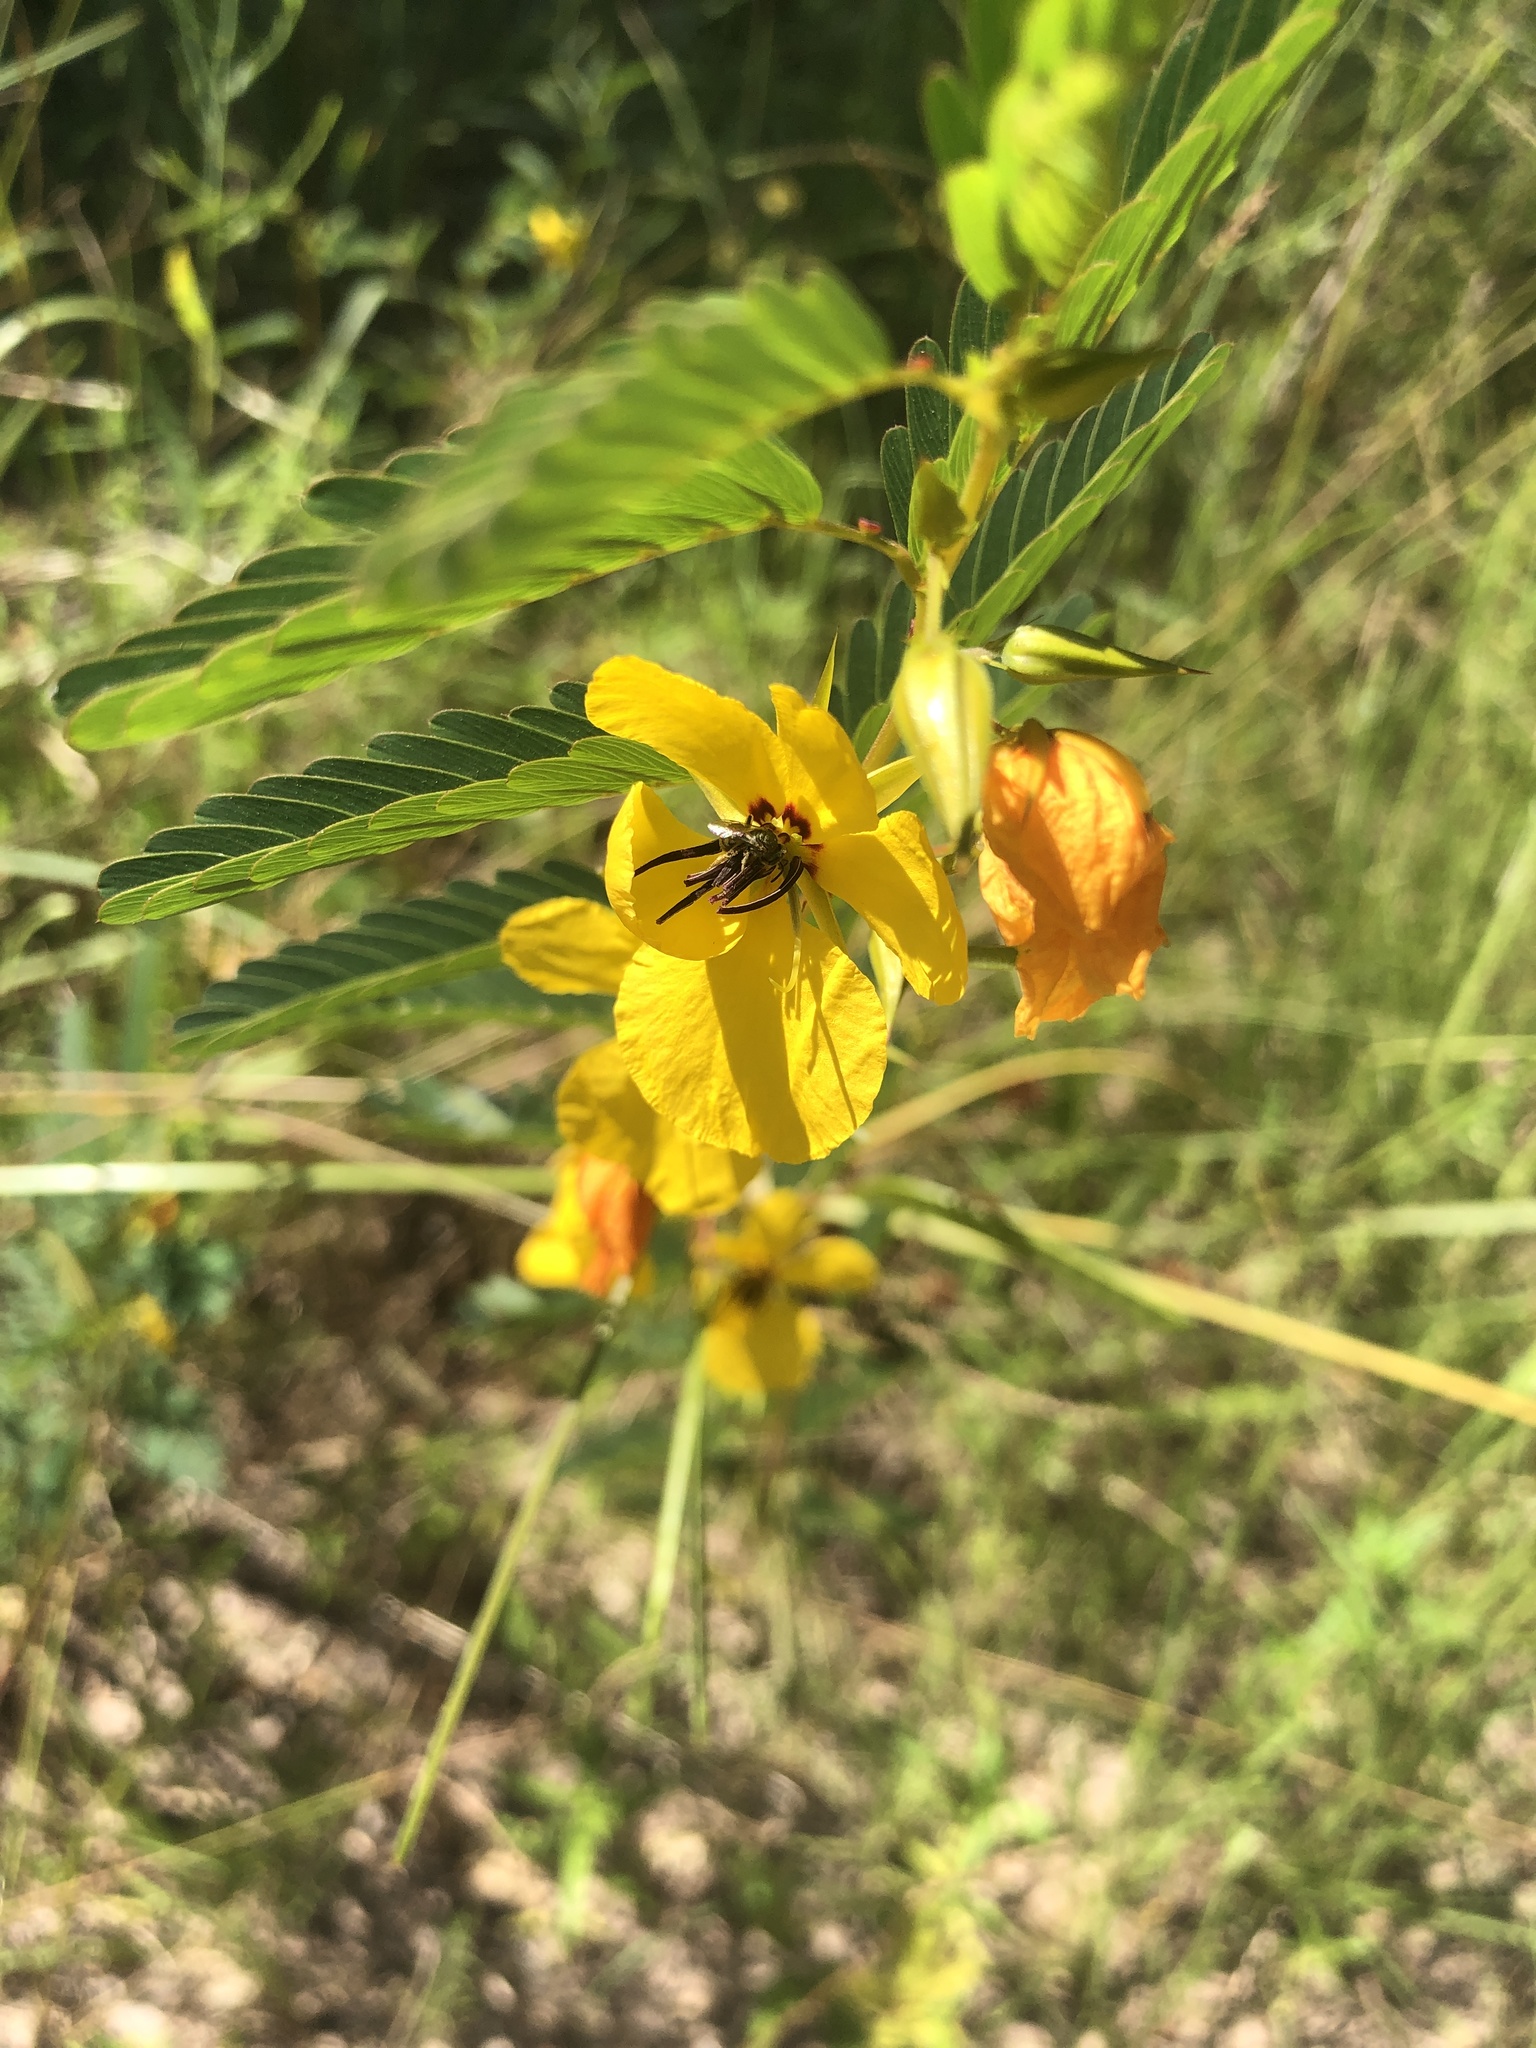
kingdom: Plantae
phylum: Tracheophyta
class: Magnoliopsida
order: Fabales
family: Fabaceae
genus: Chamaecrista
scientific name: Chamaecrista fasciculata
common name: Golden cassia
